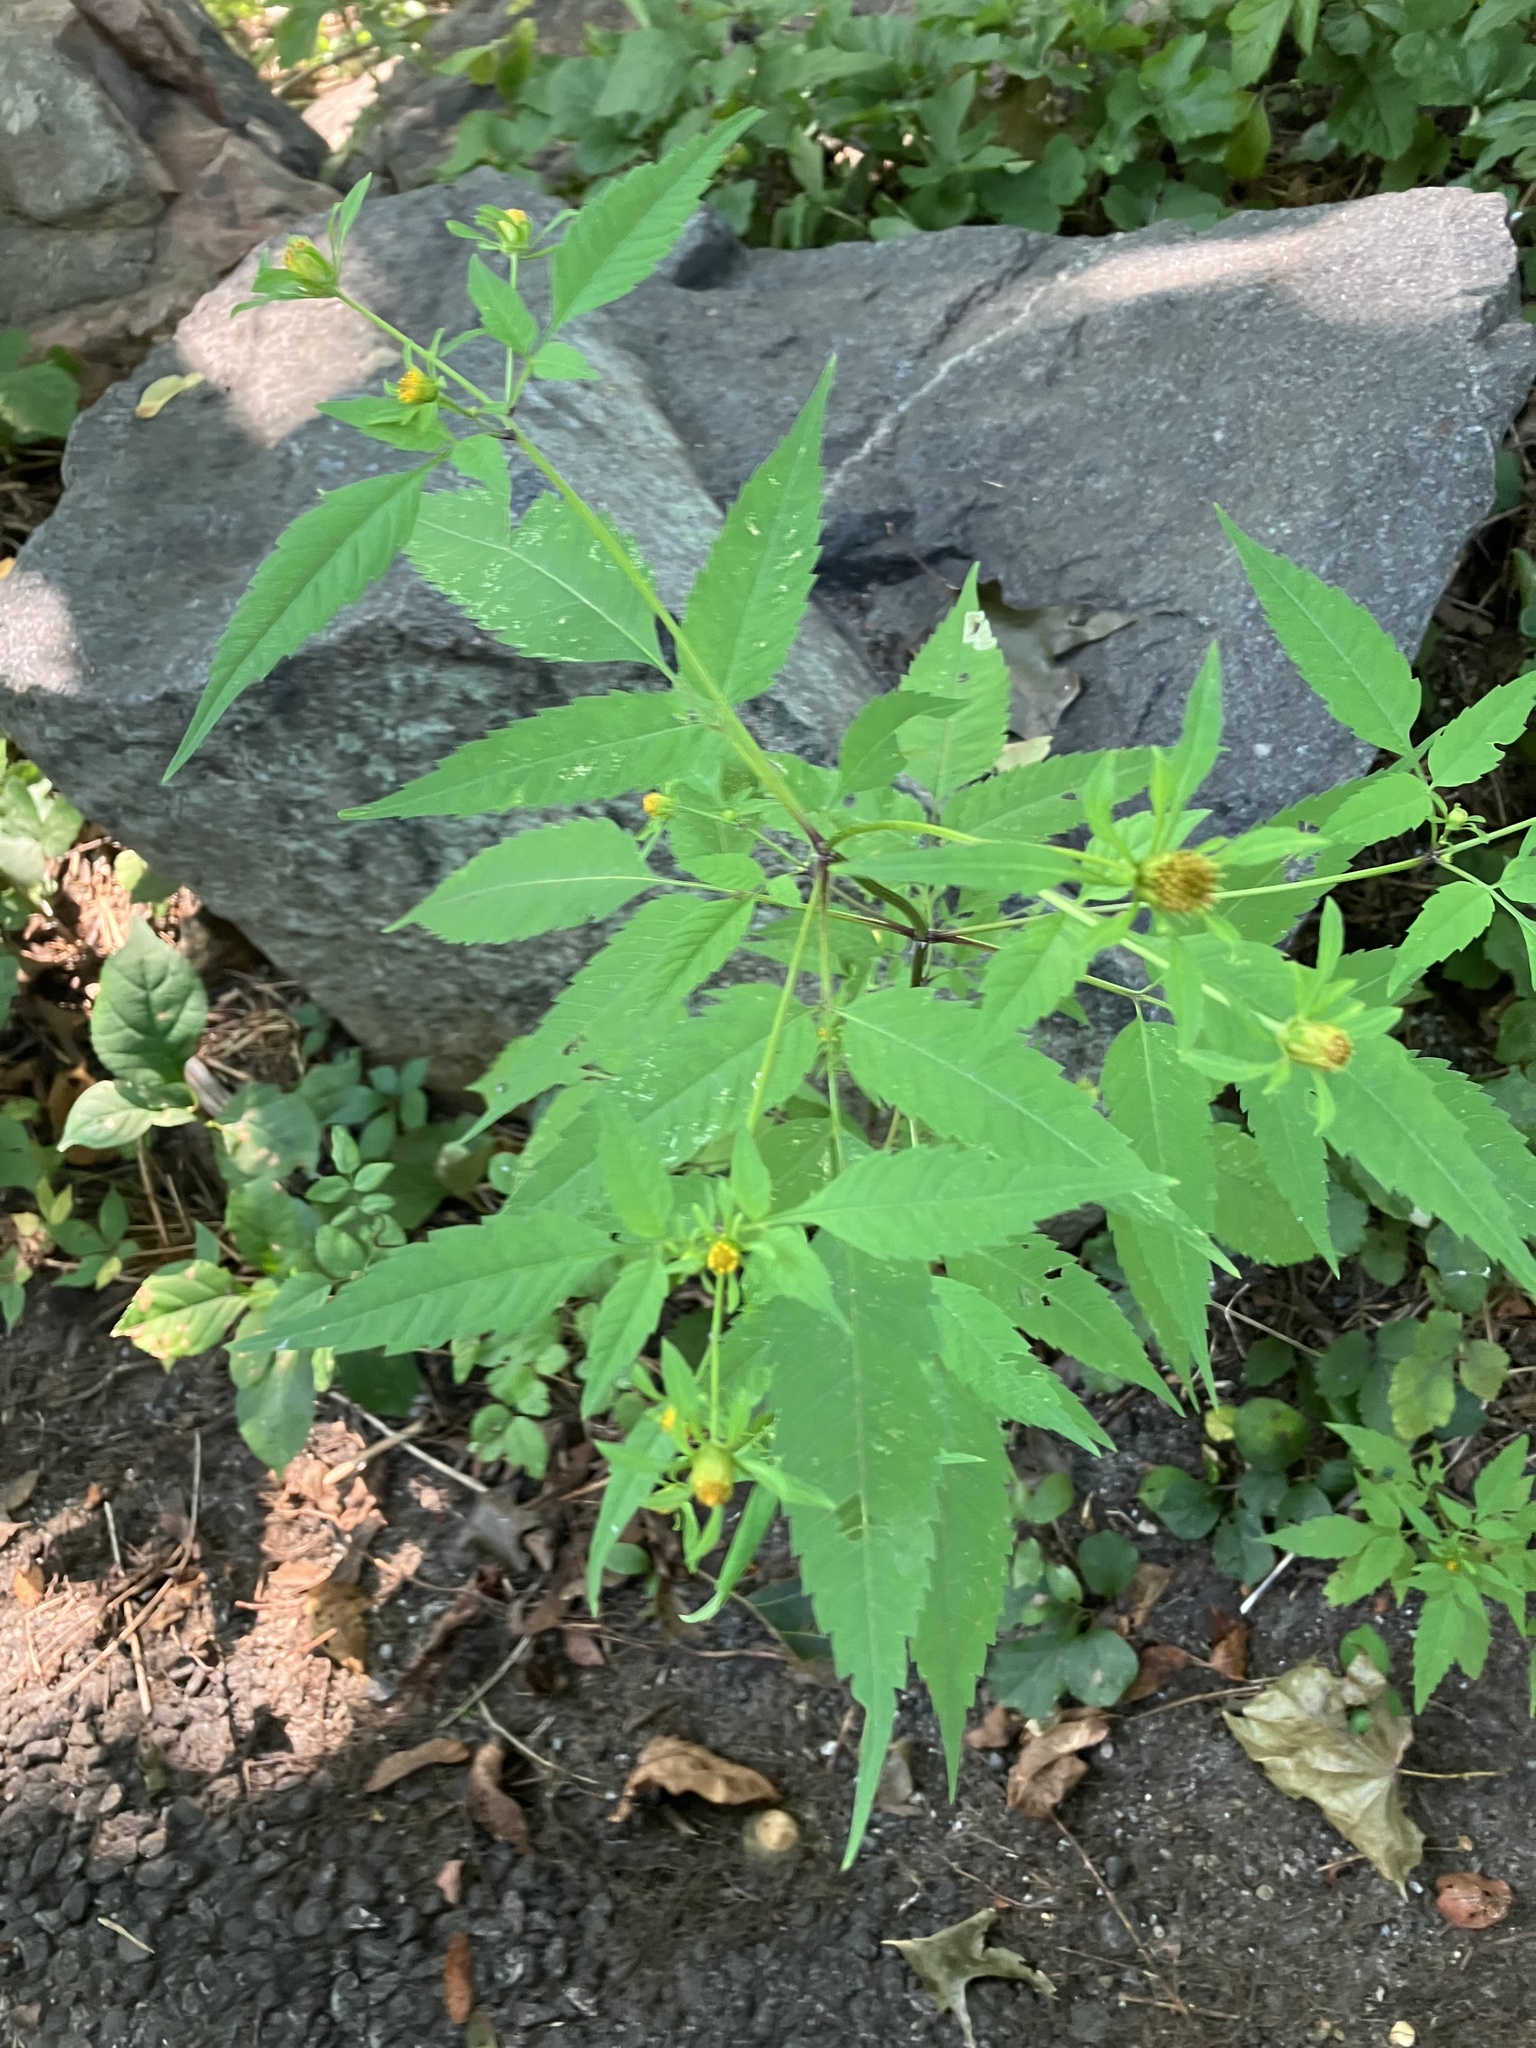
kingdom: Plantae
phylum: Tracheophyta
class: Magnoliopsida
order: Asterales
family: Asteraceae
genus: Bidens
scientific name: Bidens frondosa
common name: Beggarticks
